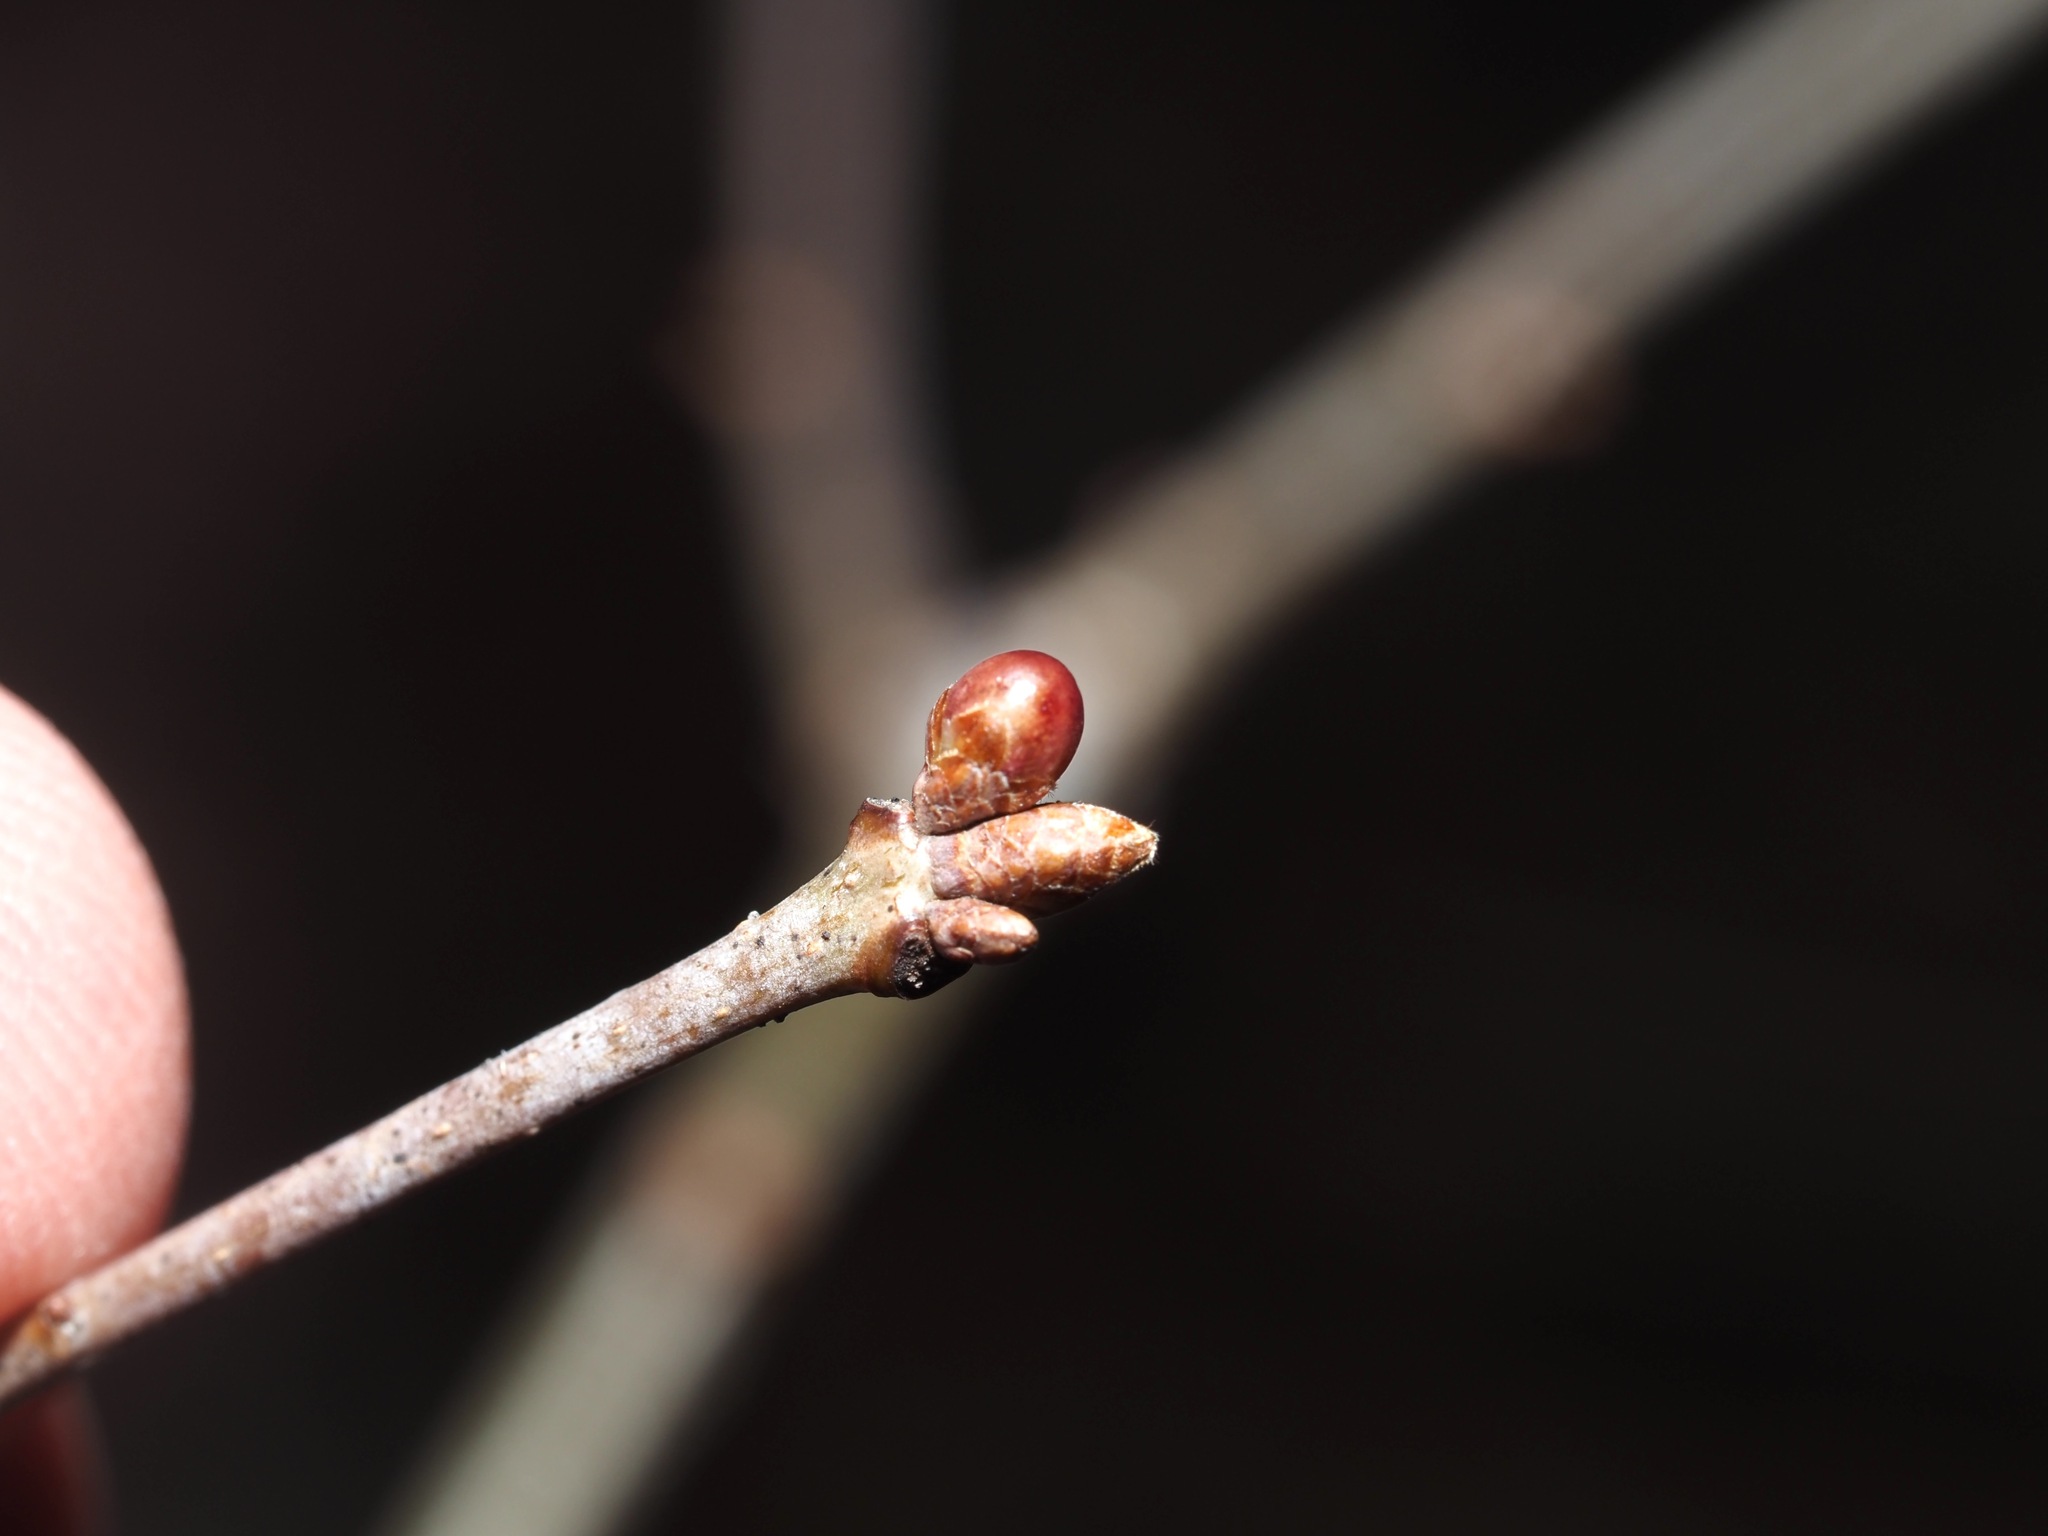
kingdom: Animalia
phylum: Arthropoda
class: Insecta
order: Hymenoptera
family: Cynipidae
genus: Neuroterus
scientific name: Neuroterus
